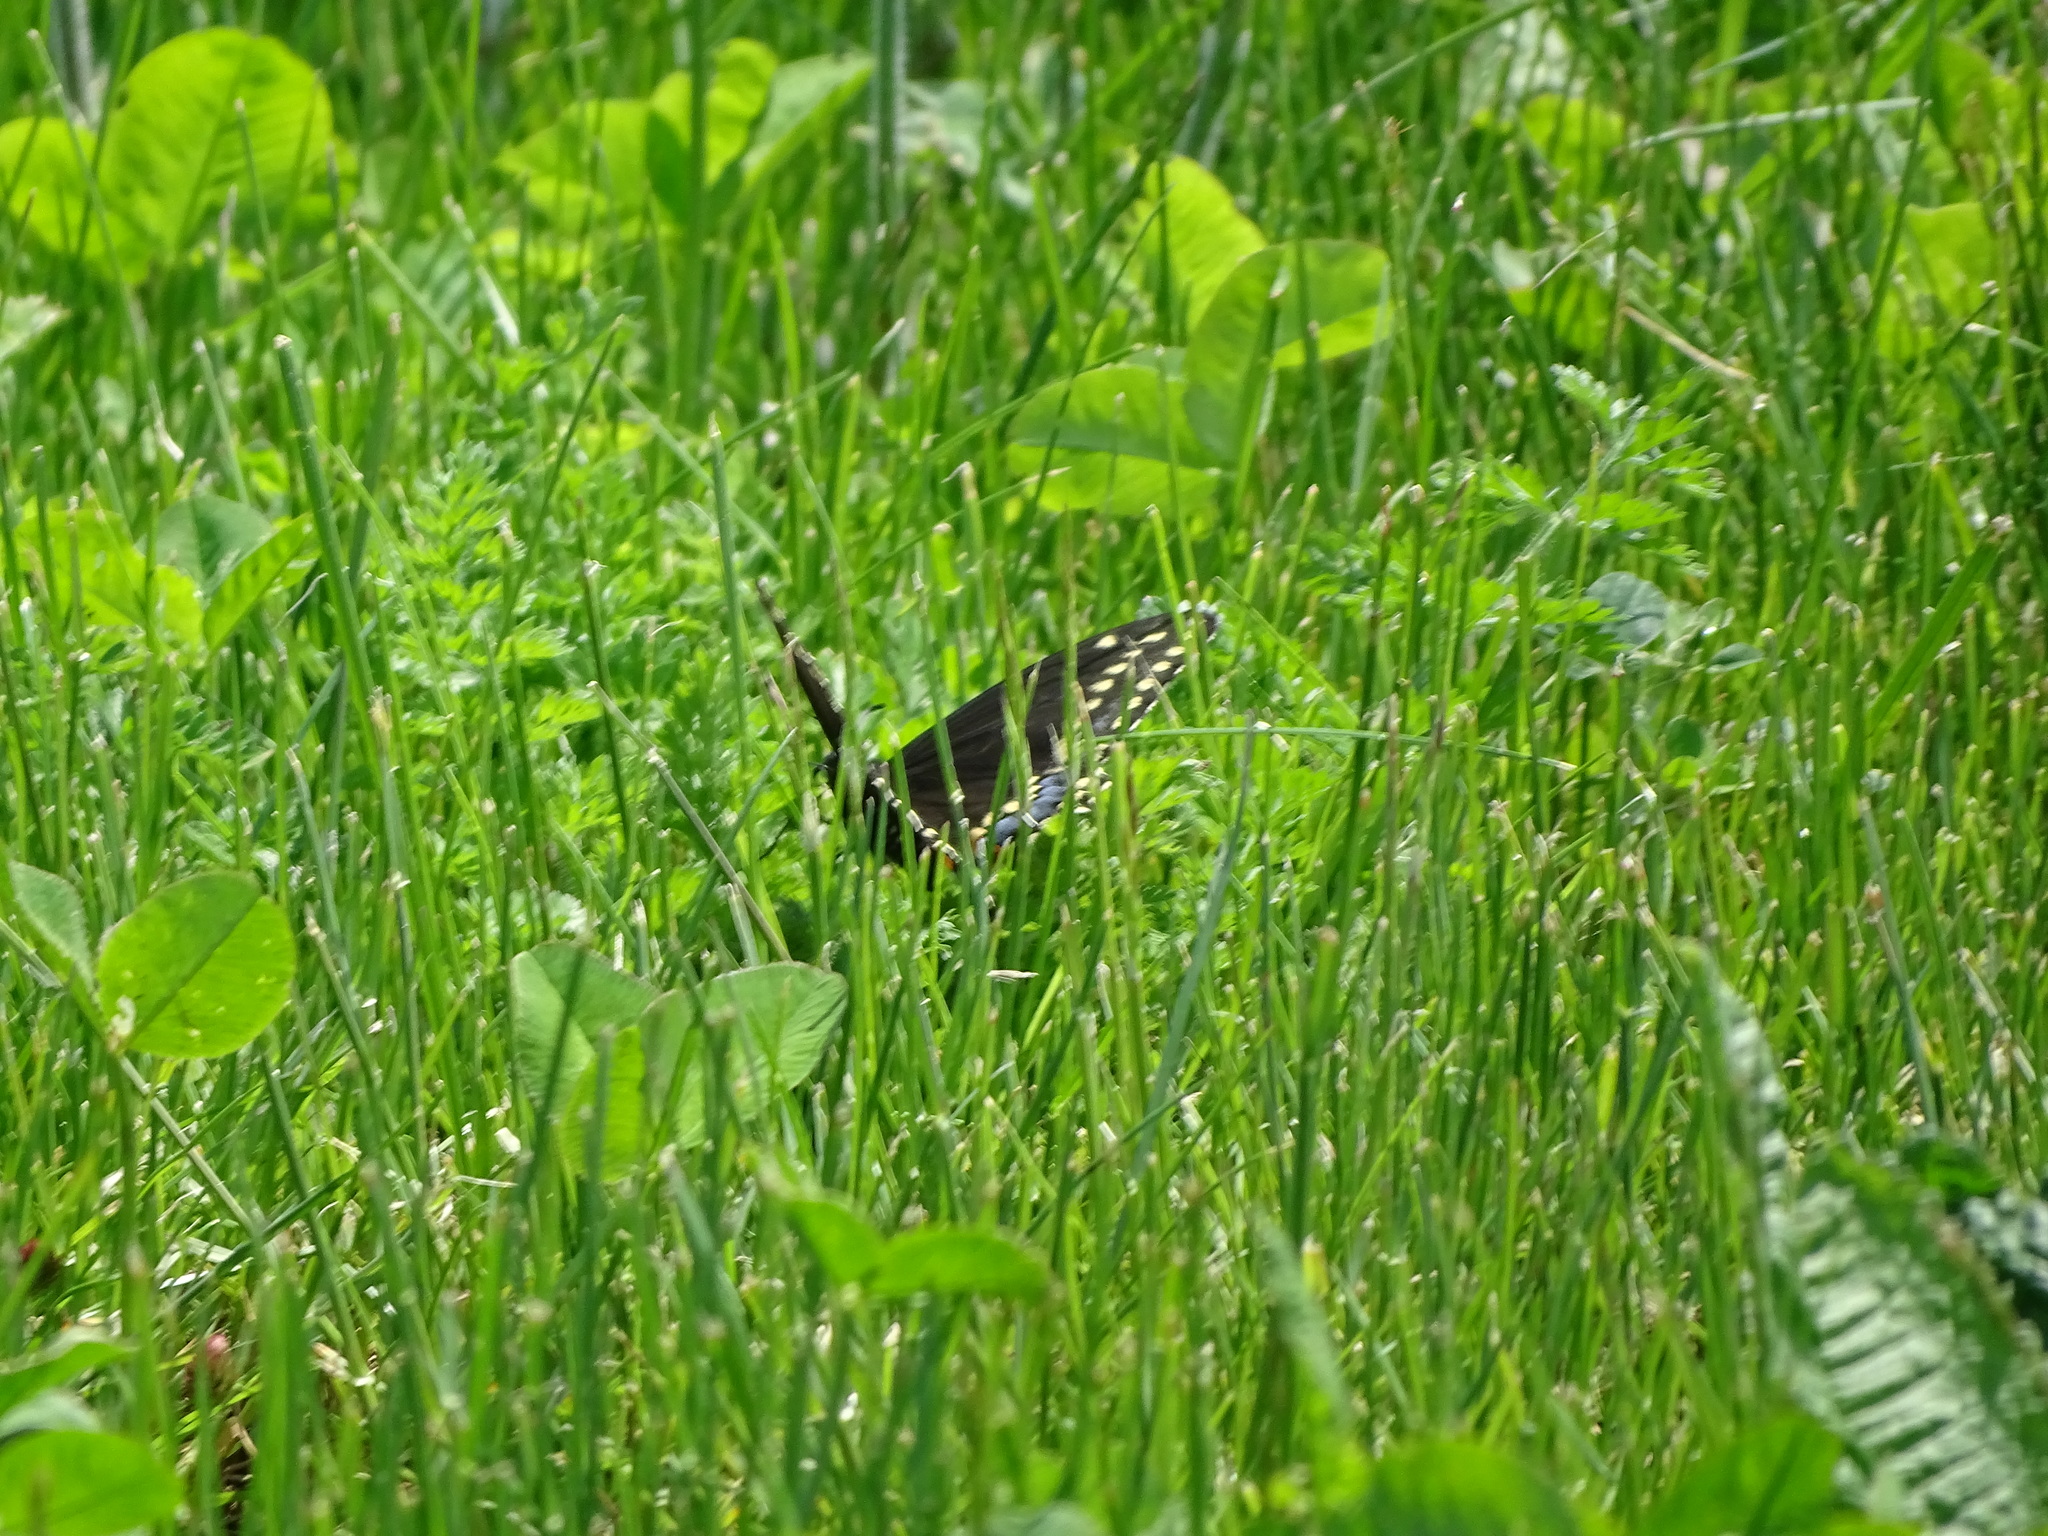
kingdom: Animalia
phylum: Arthropoda
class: Insecta
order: Lepidoptera
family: Papilionidae
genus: Papilio
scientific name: Papilio polyxenes
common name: Black swallowtail
